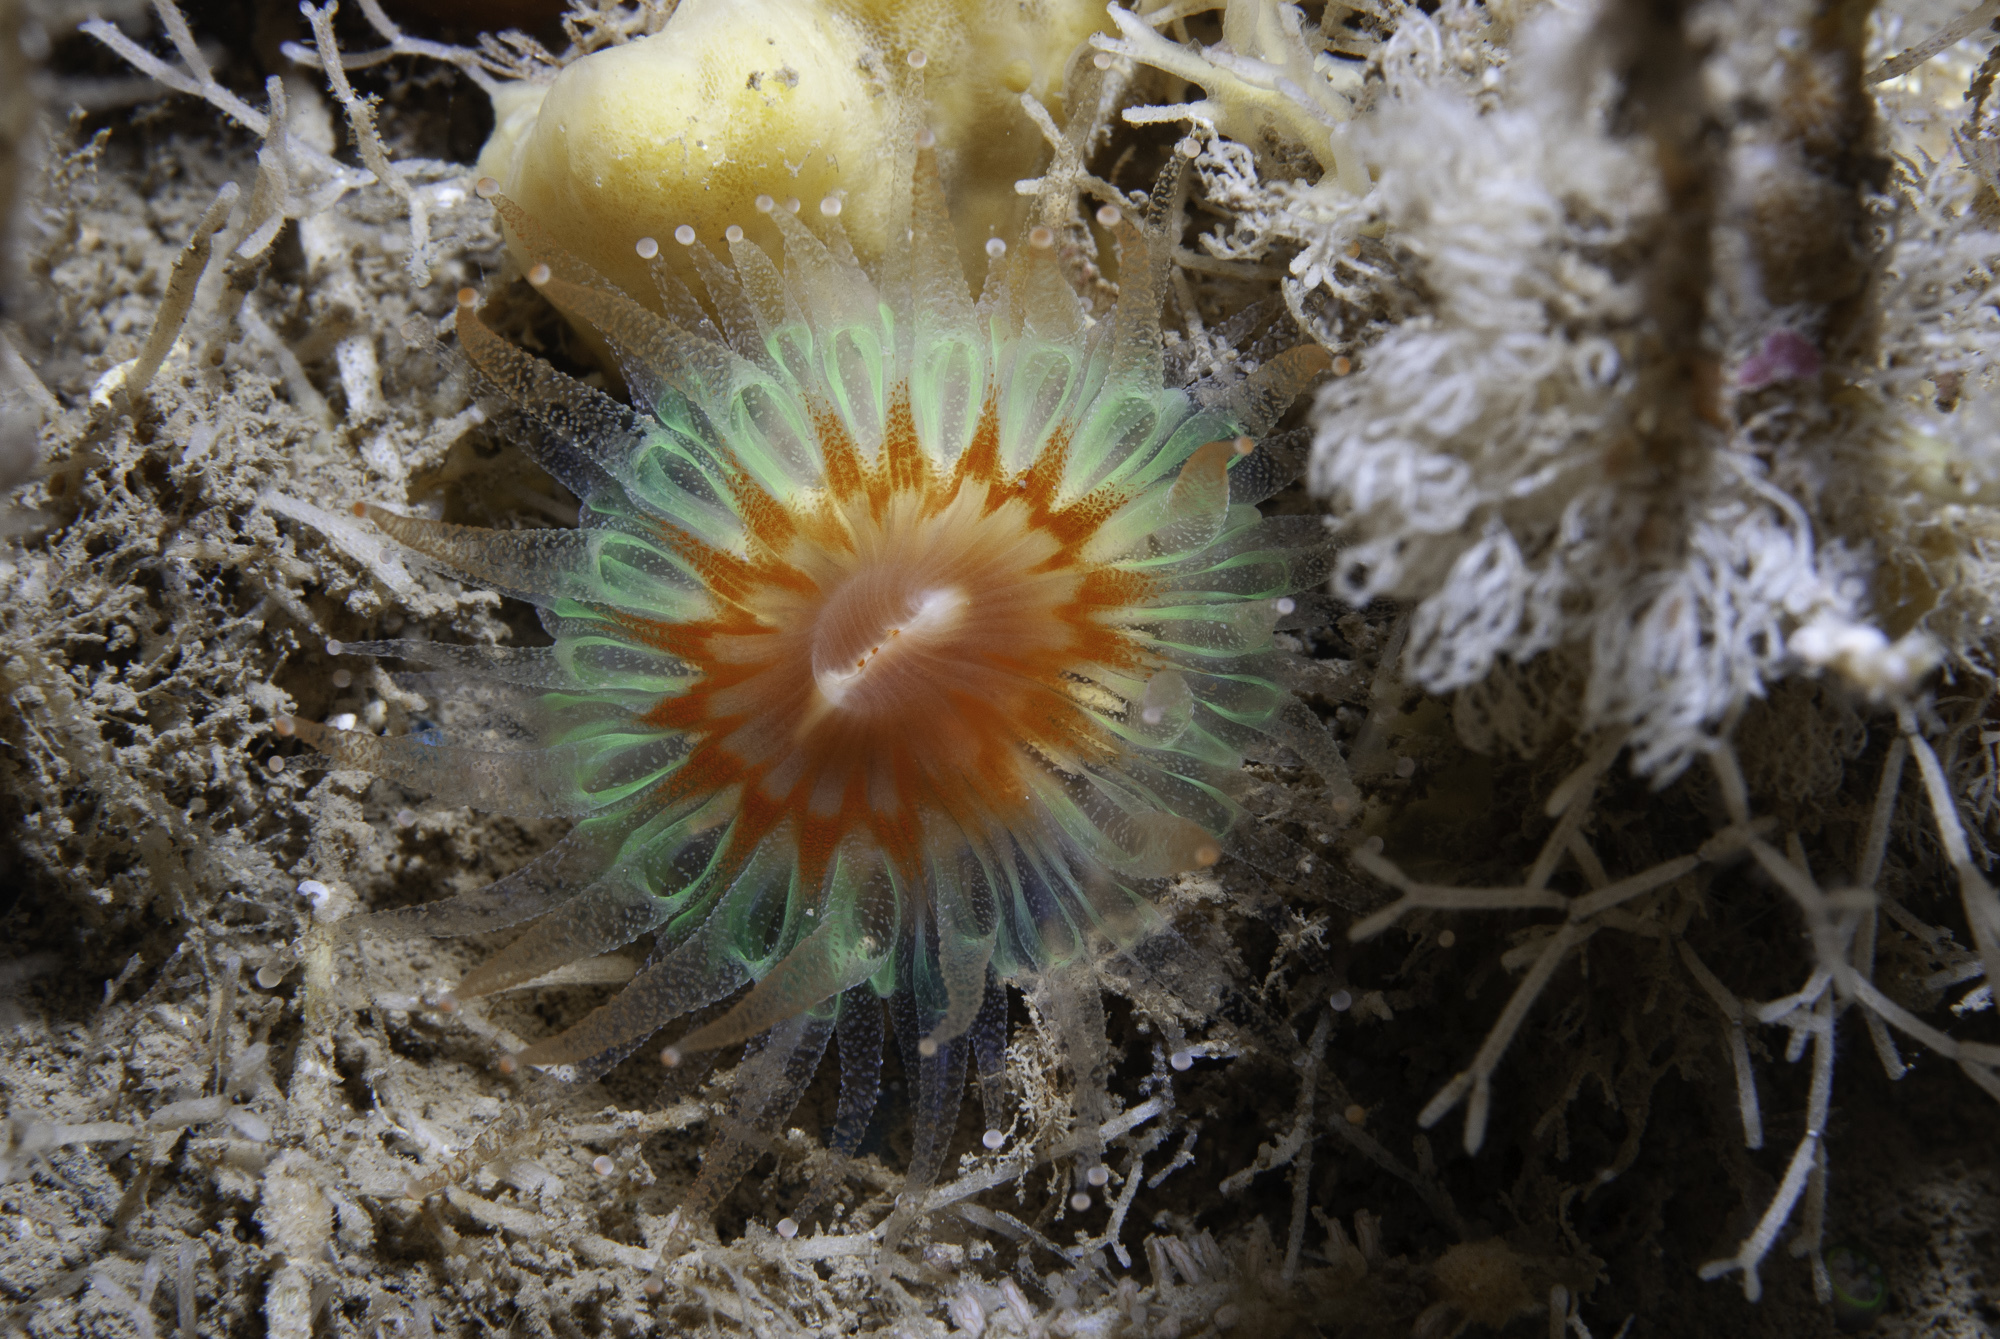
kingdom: Animalia
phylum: Cnidaria
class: Anthozoa
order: Scleractinia
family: Caryophylliidae
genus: Caryophyllia
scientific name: Caryophyllia smithii
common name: Devonshire cup coral
